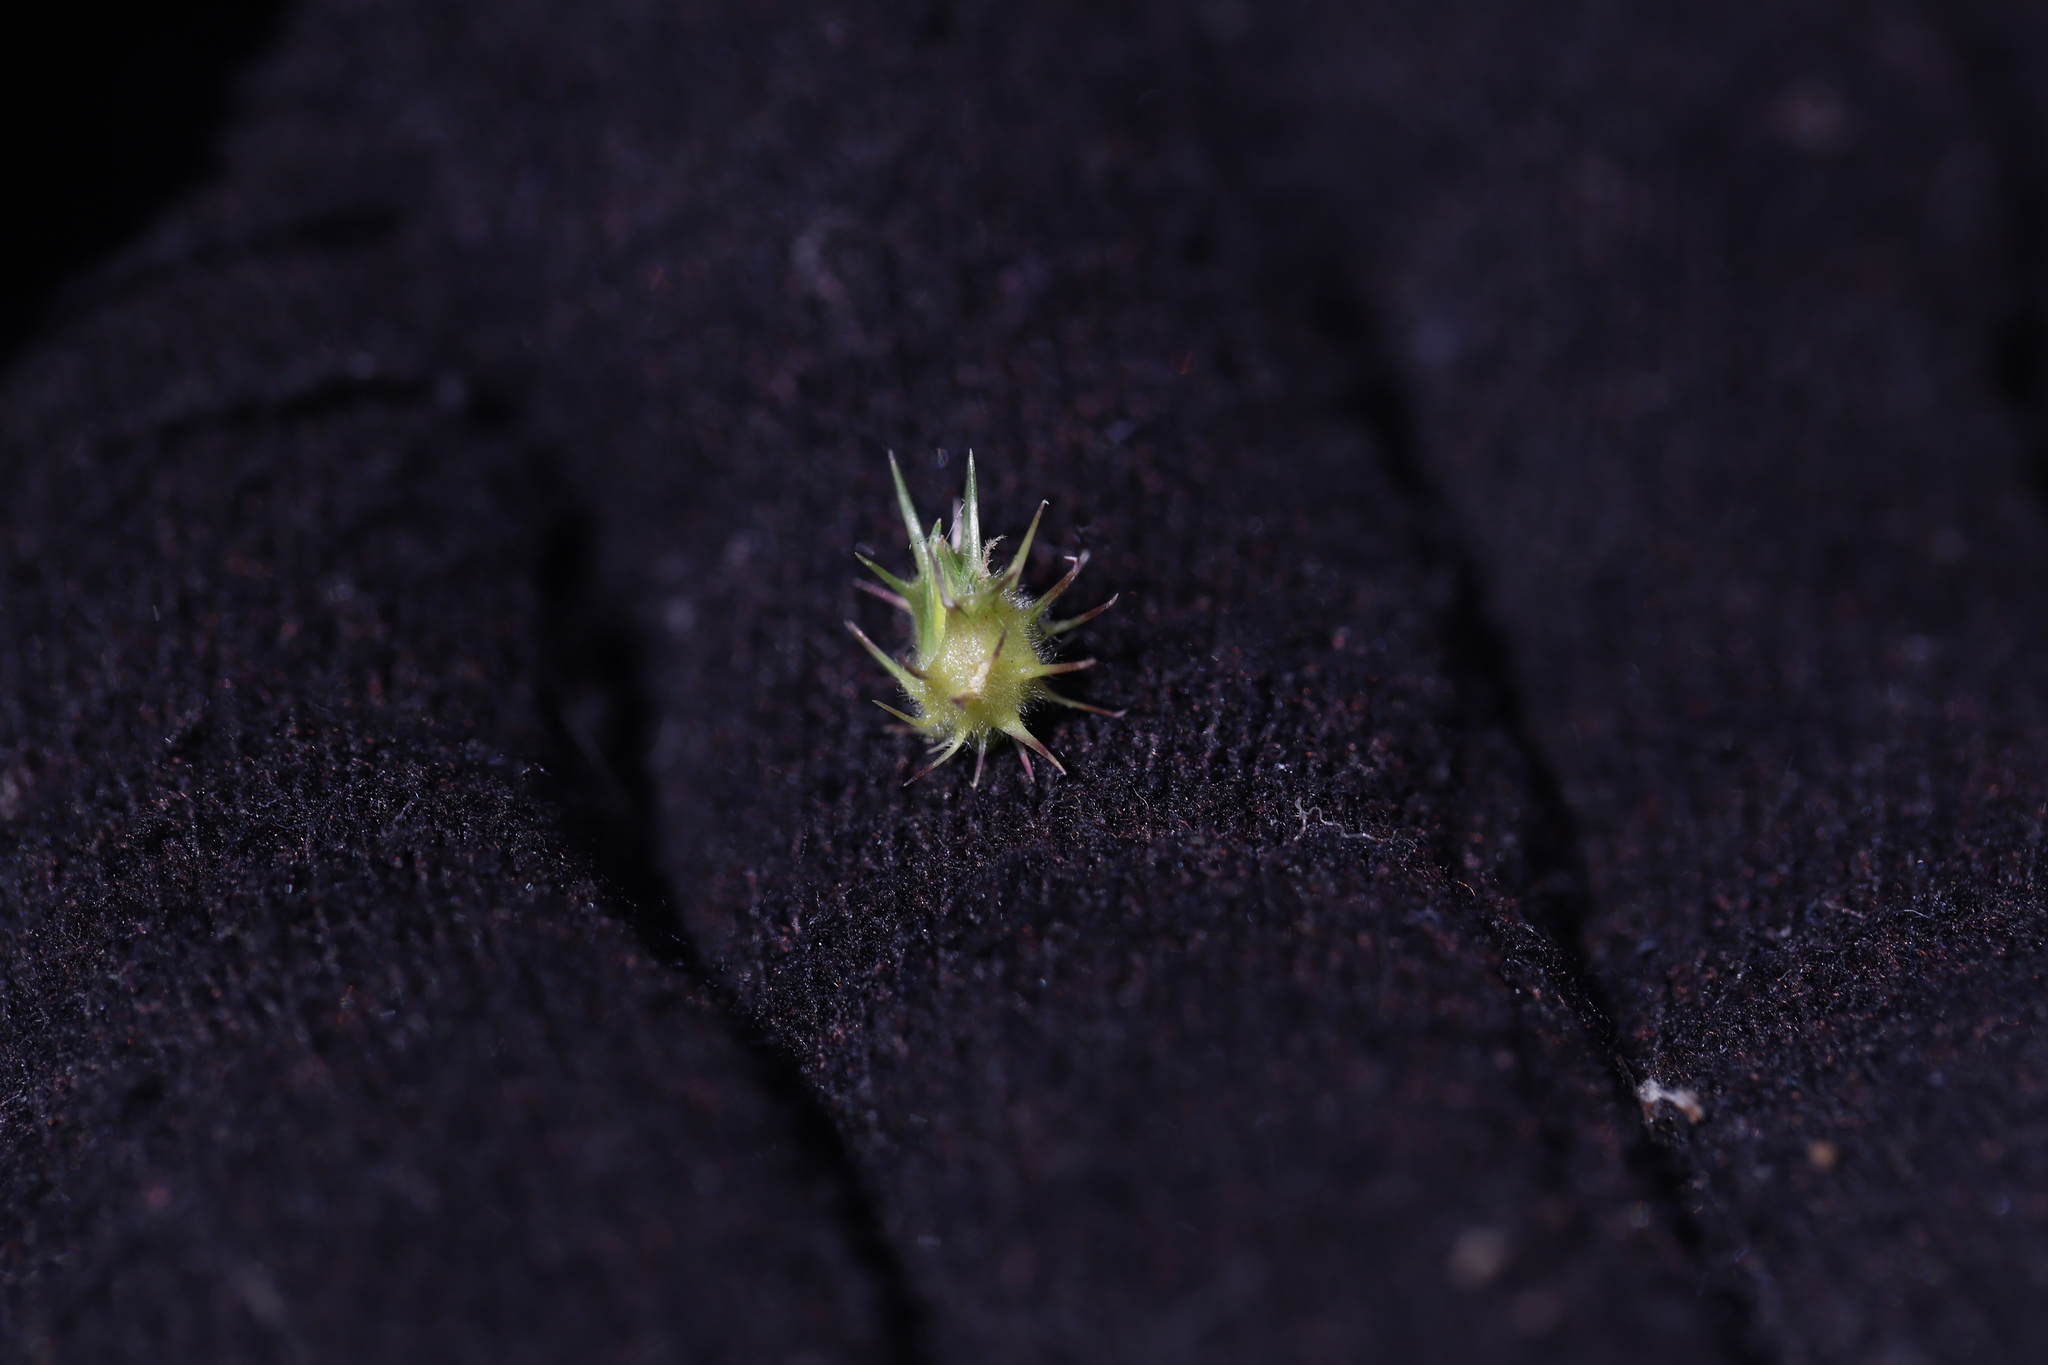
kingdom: Plantae
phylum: Tracheophyta
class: Liliopsida
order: Poales
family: Poaceae
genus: Cenchrus
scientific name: Cenchrus spinifex
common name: Coast sandbur
